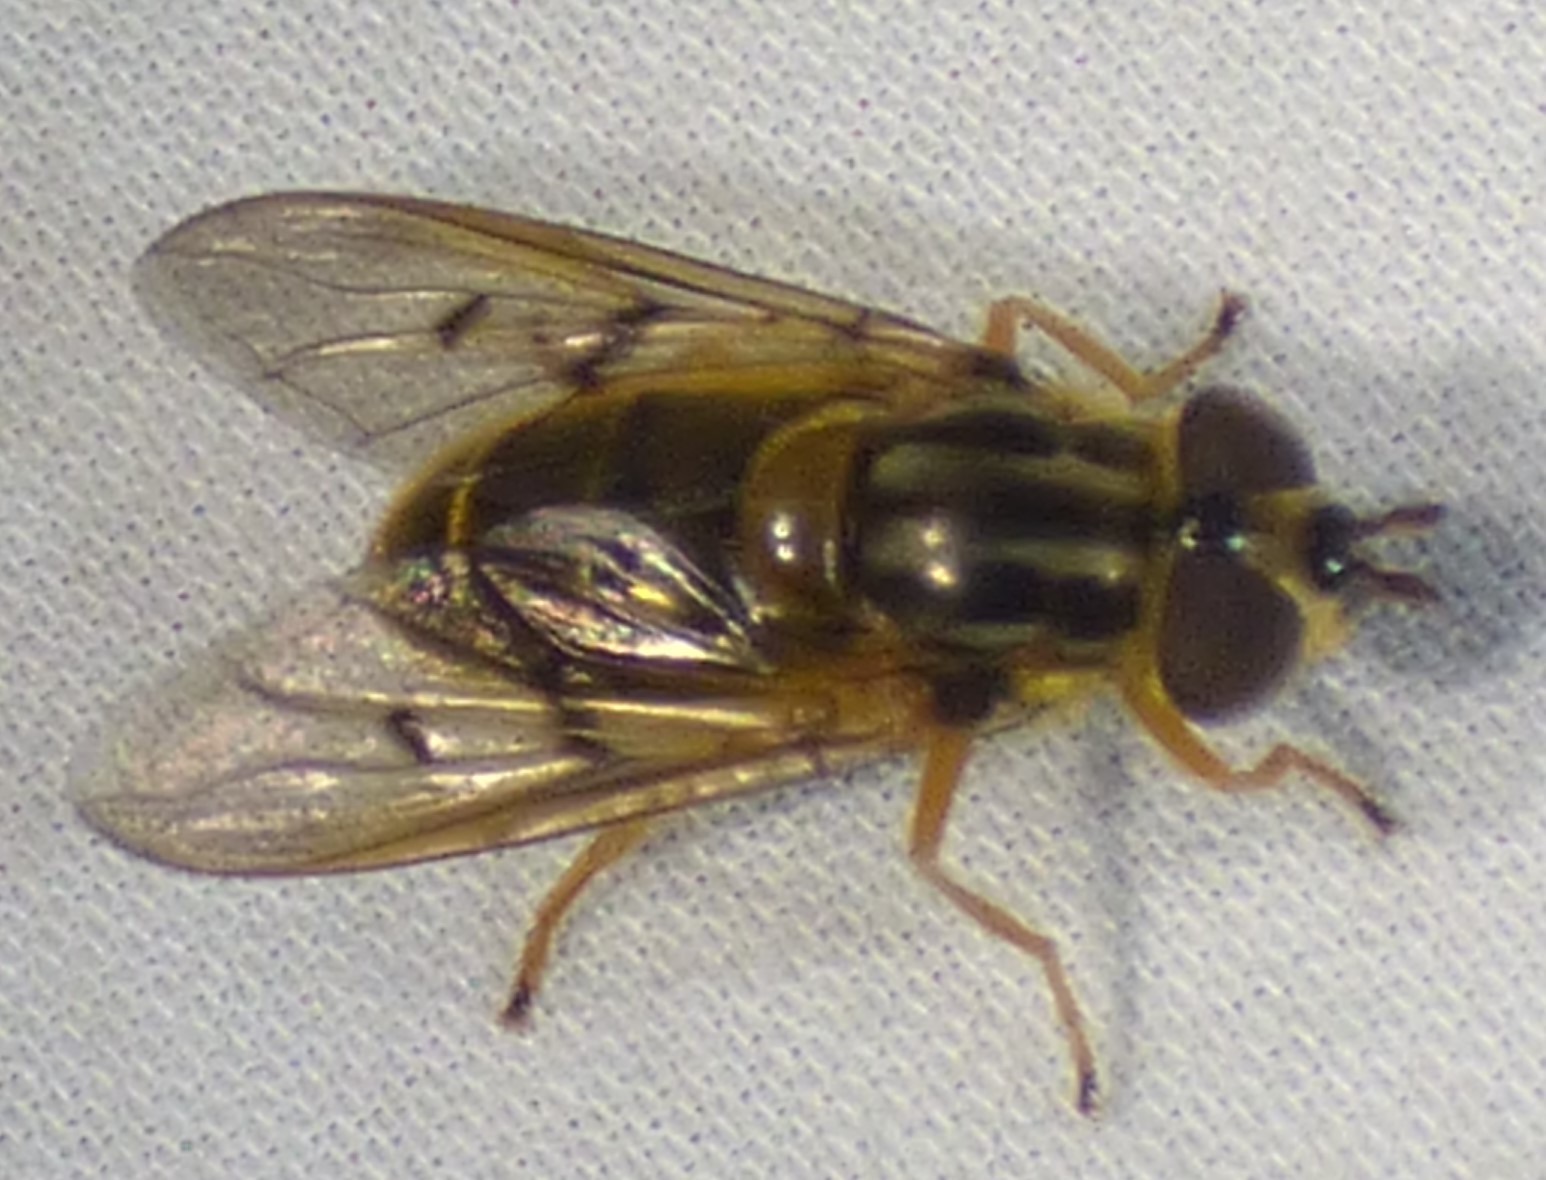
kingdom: Animalia
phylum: Arthropoda
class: Insecta
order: Diptera
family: Syrphidae
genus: Ferdinandea
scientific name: Ferdinandea buccata
